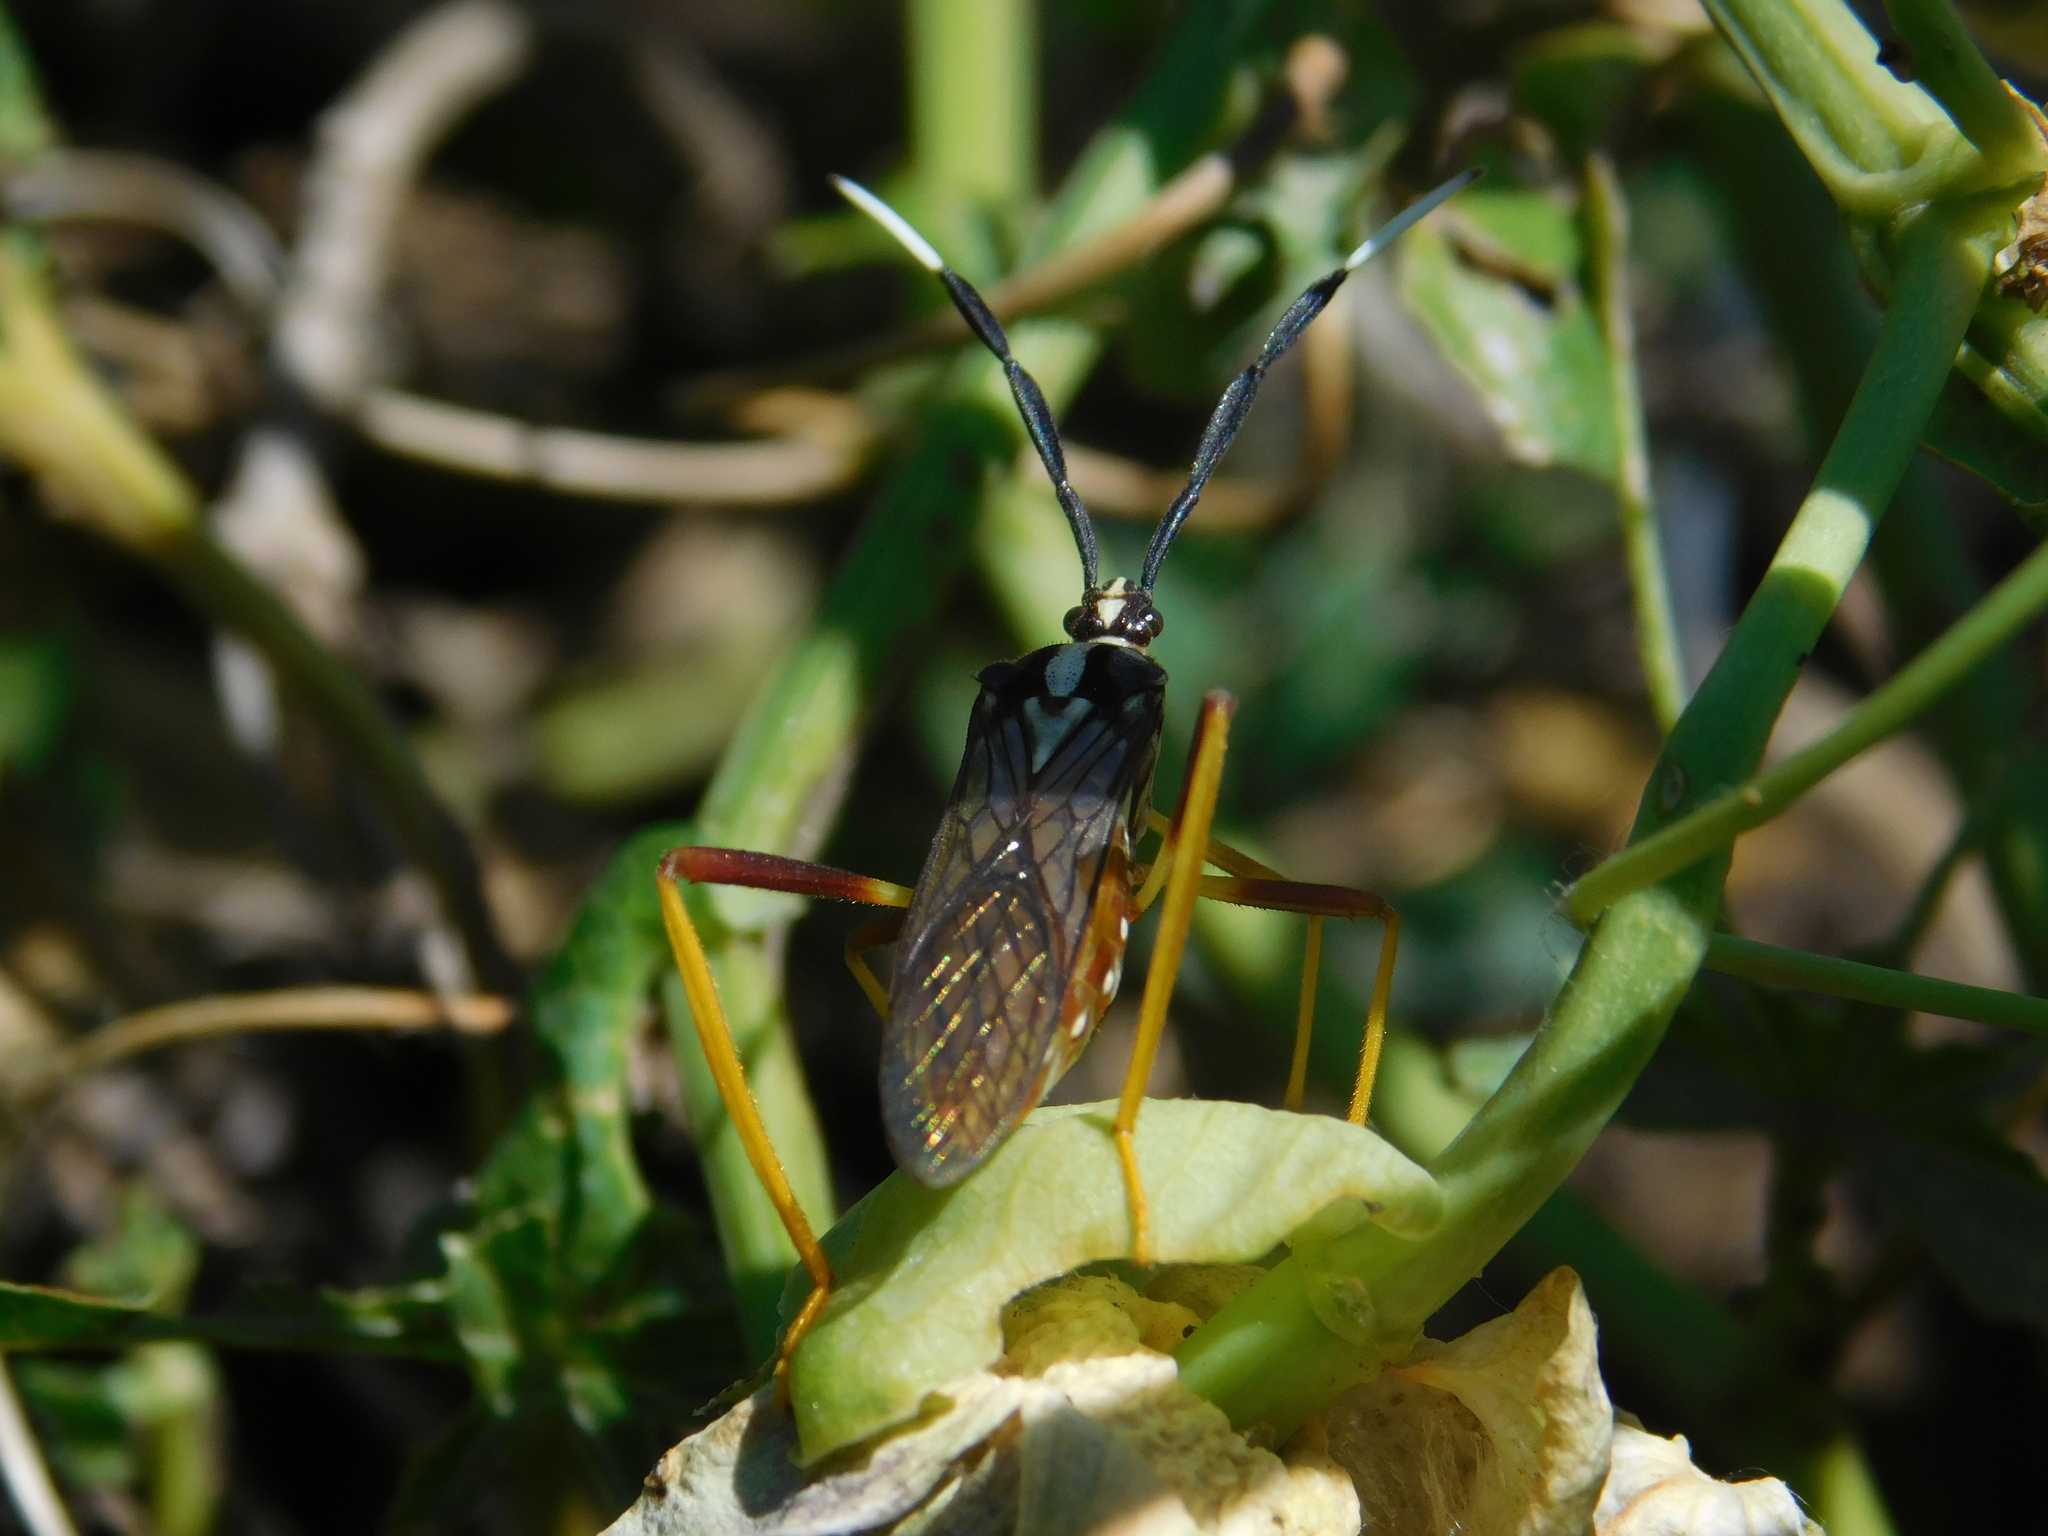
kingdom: Animalia
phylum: Arthropoda
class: Insecta
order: Hemiptera
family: Coreidae
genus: Holhymenia
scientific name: Holhymenia histrio
